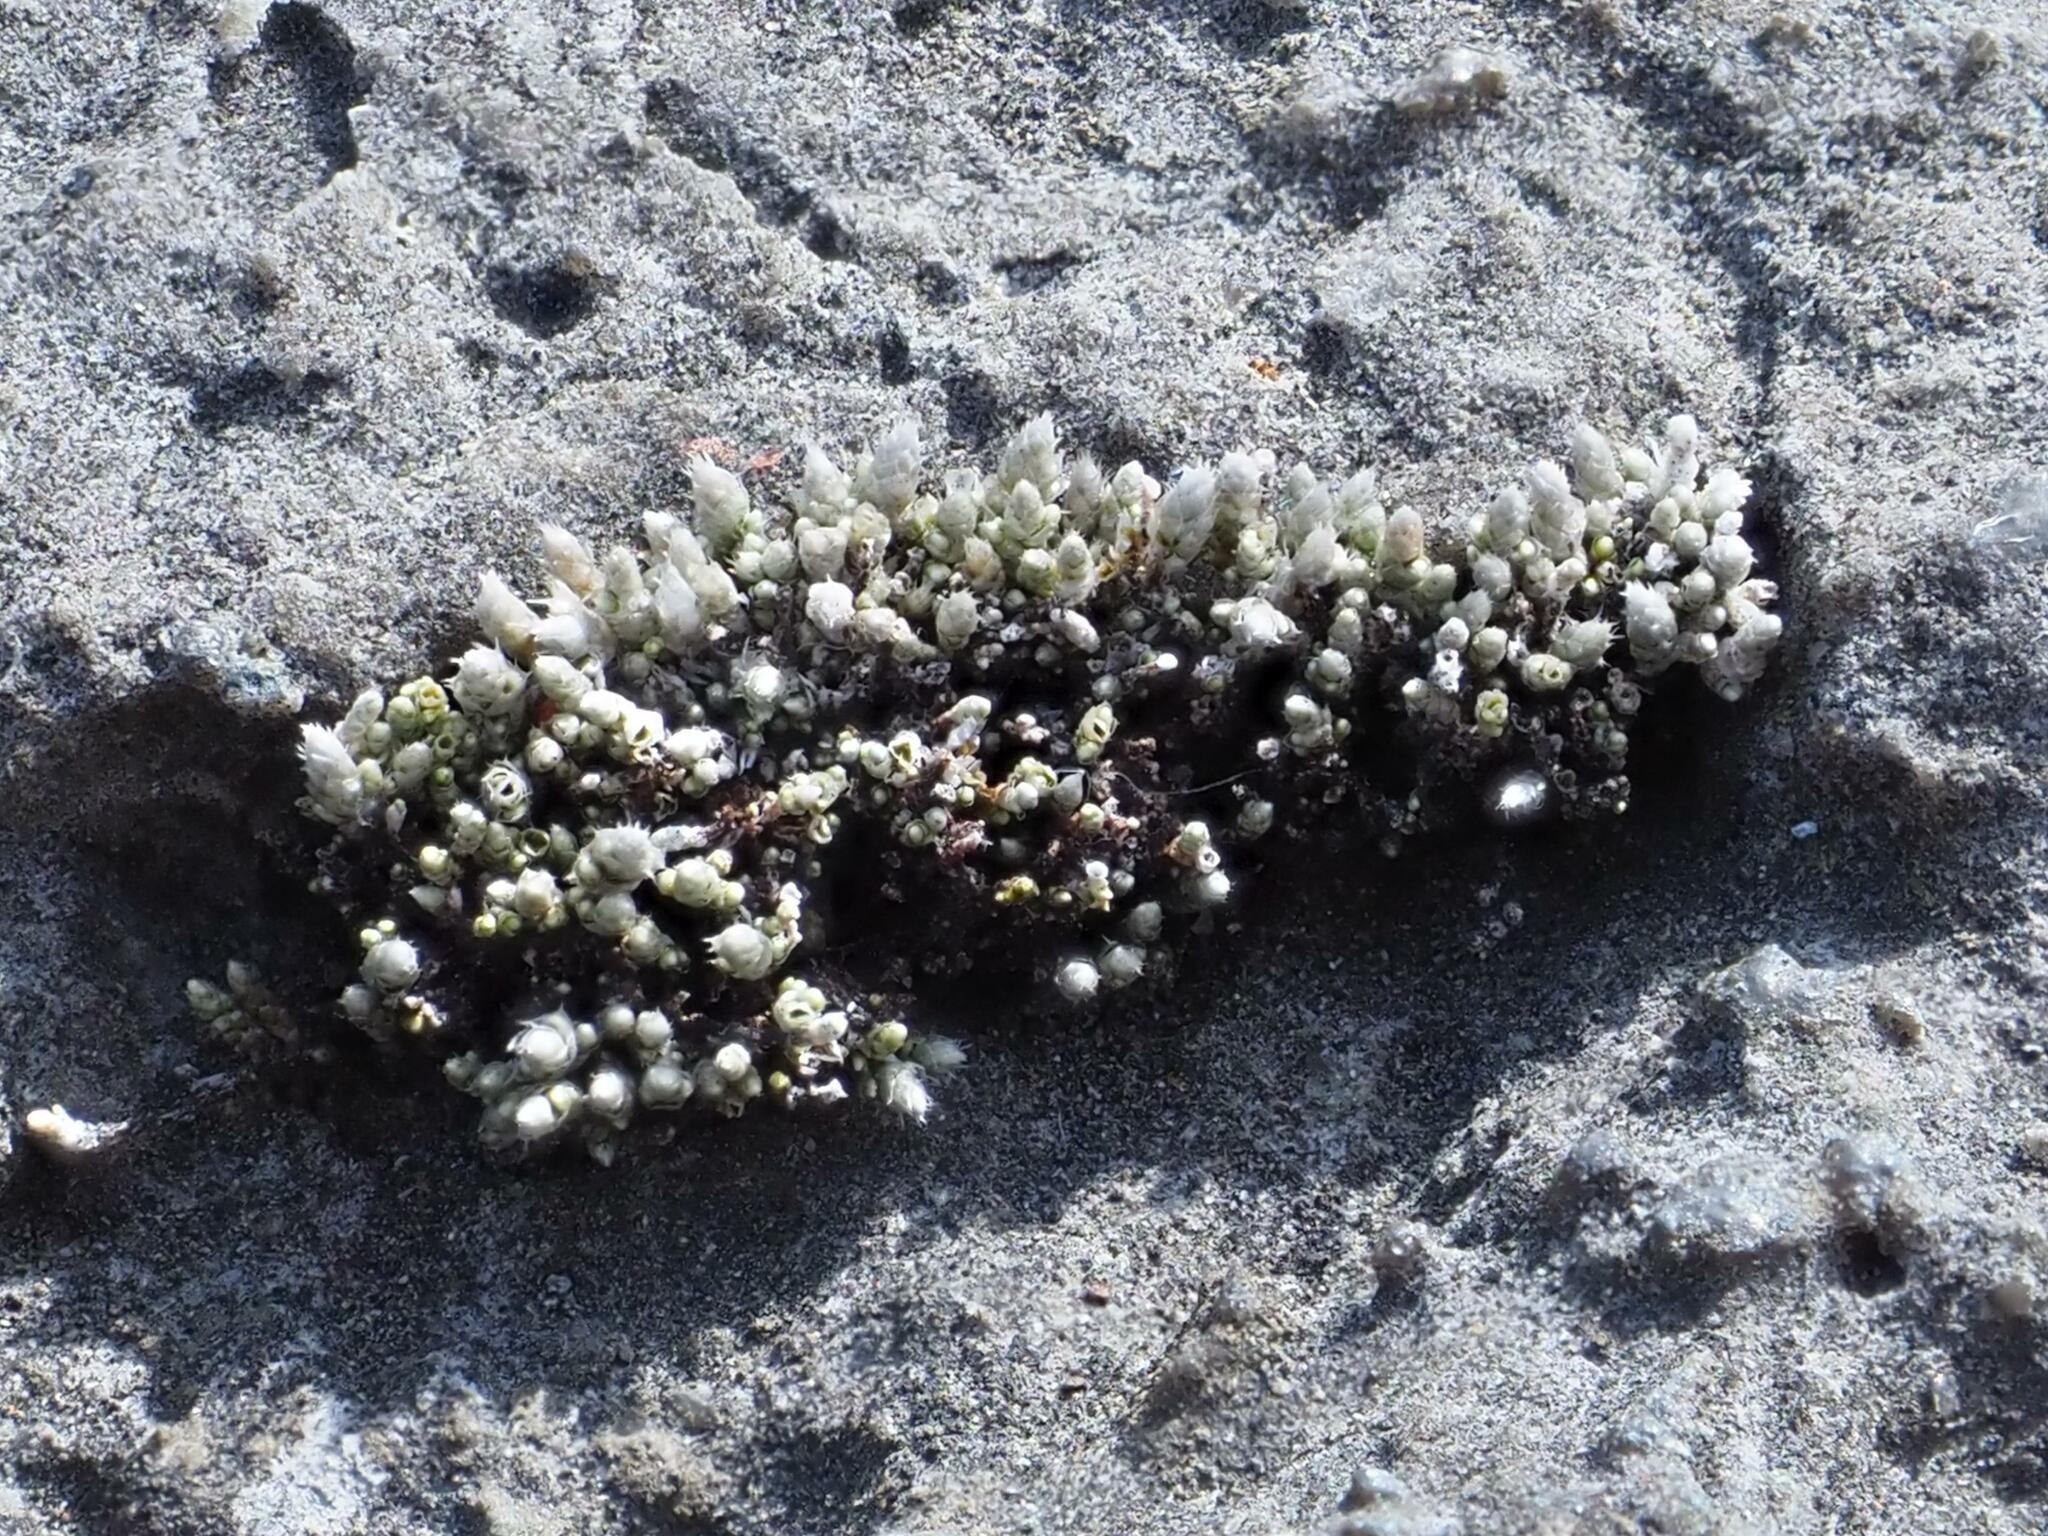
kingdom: Plantae
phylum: Bryophyta
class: Bryopsida
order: Bryales
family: Bryaceae
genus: Bryum
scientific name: Bryum argenteum
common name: Silver-moss
